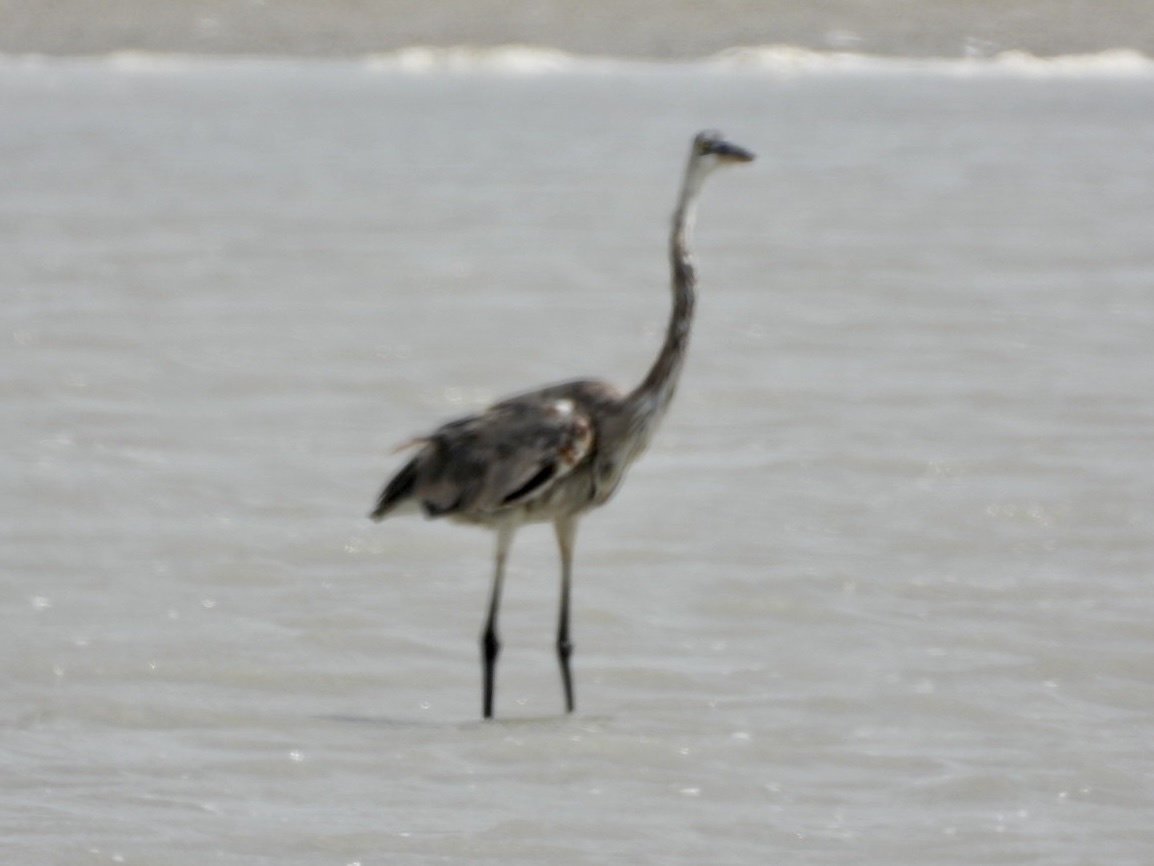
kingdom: Animalia
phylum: Chordata
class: Aves
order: Pelecaniformes
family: Ardeidae
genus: Ardea
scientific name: Ardea herodias
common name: Great blue heron
